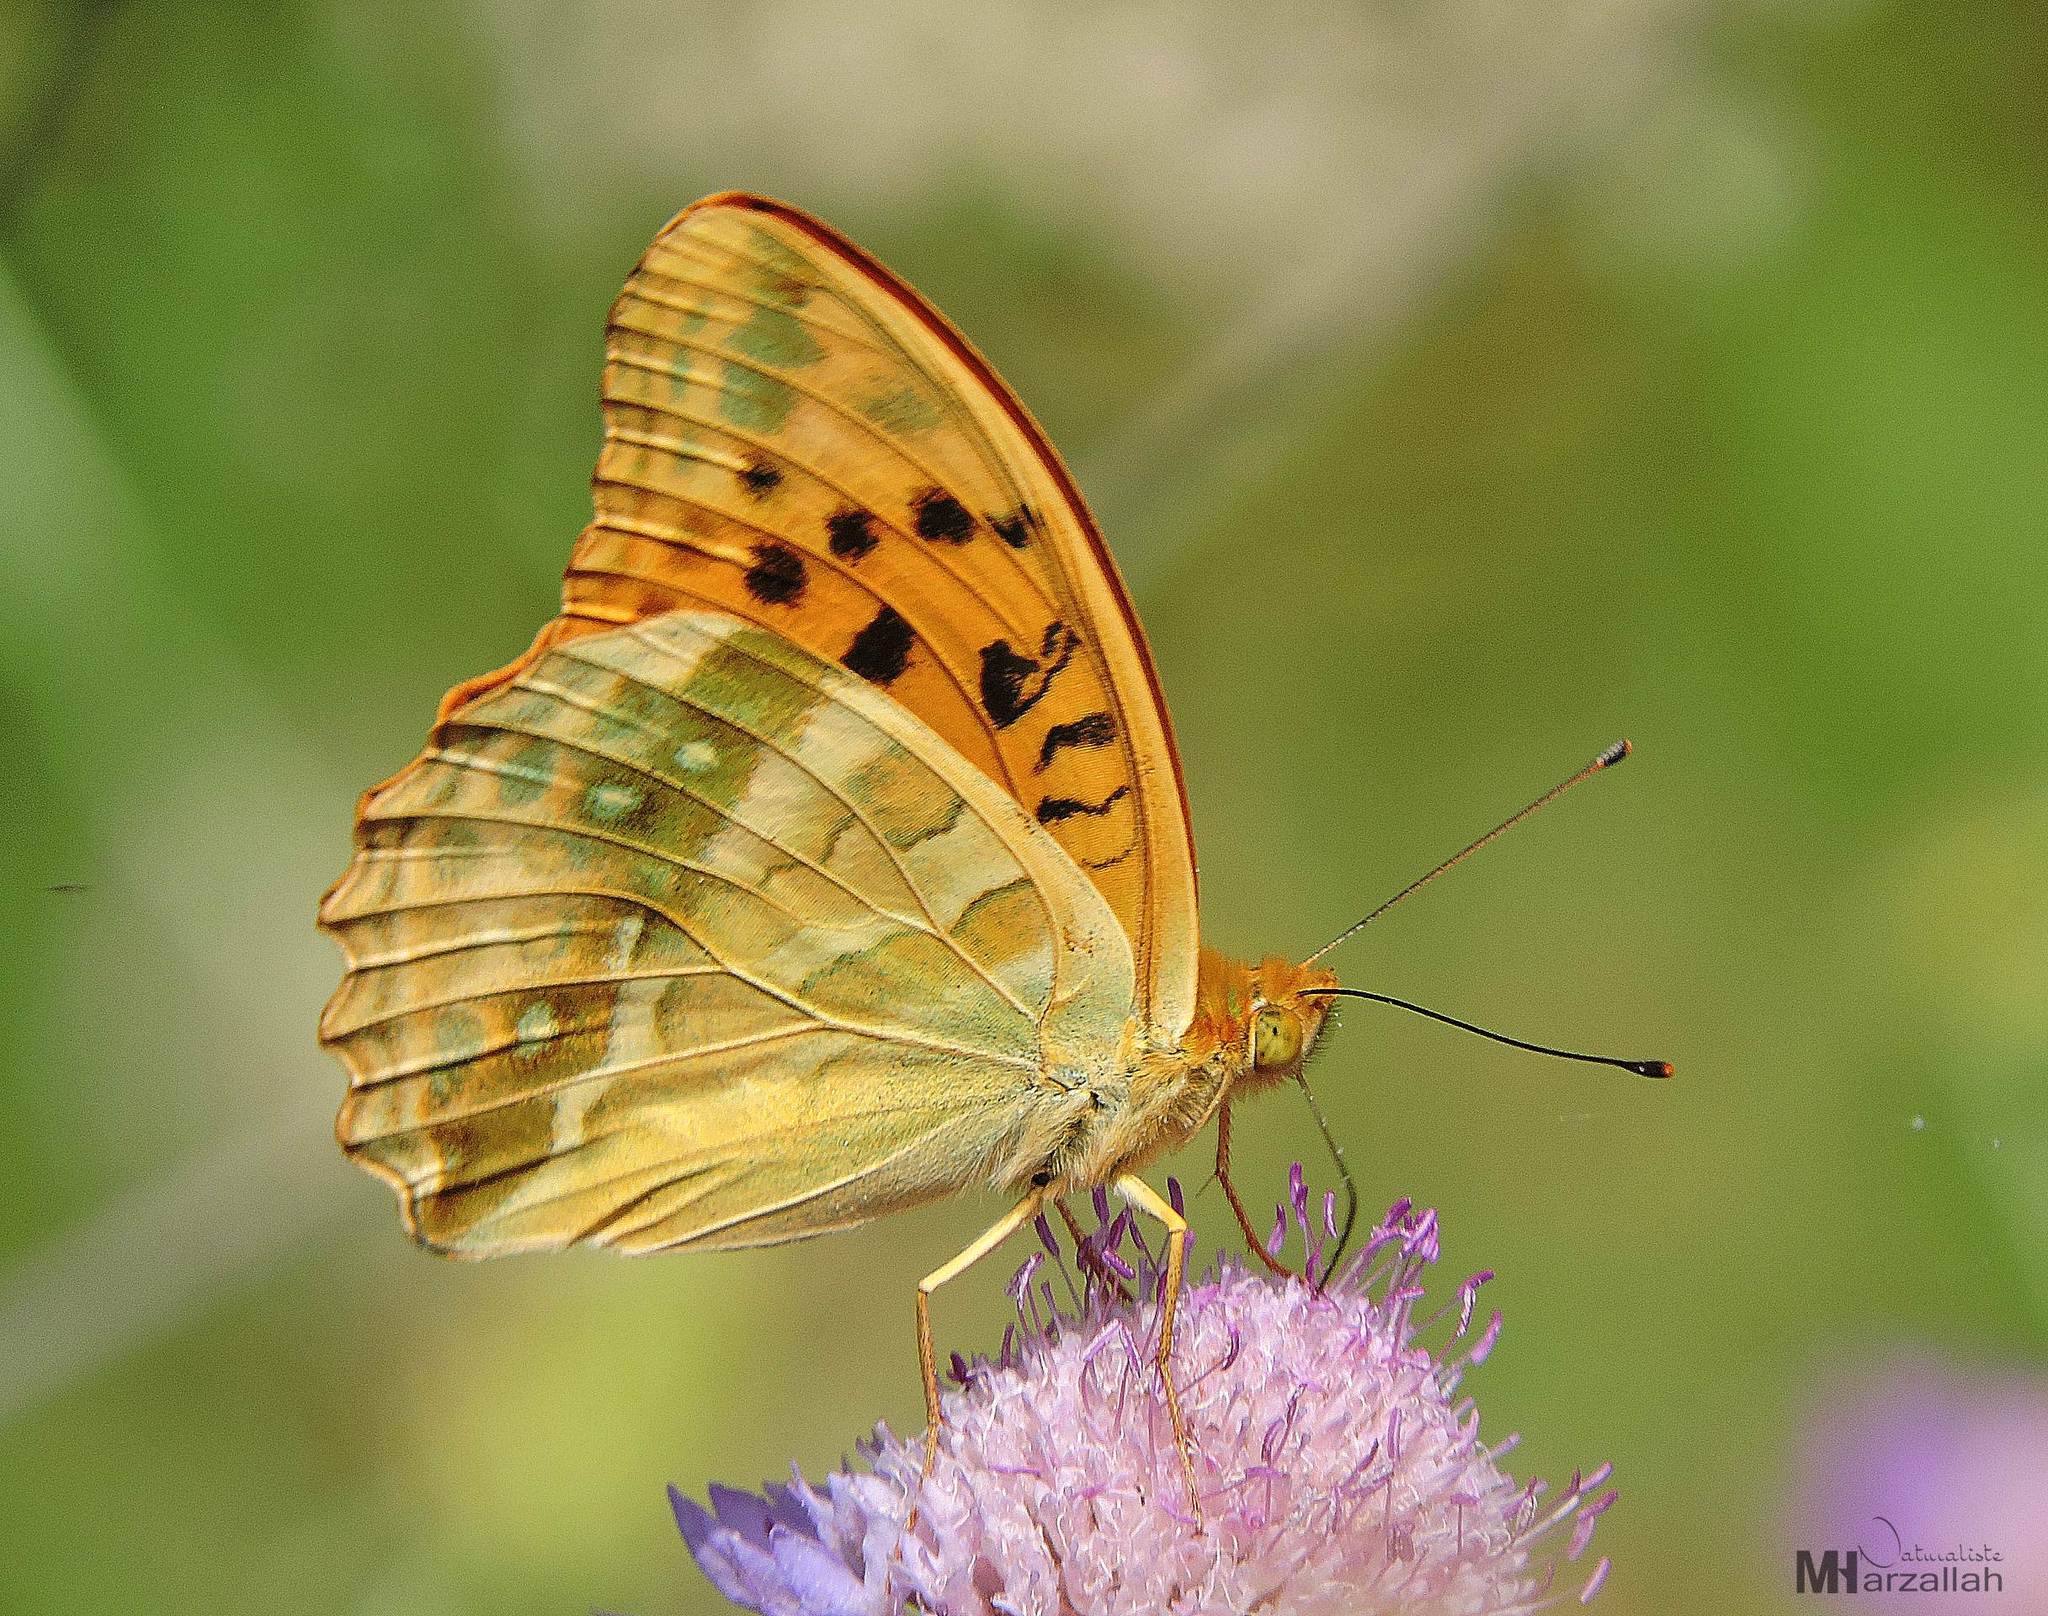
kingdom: Animalia
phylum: Arthropoda
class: Insecta
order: Lepidoptera
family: Nymphalidae
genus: Argynnis
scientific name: Argynnis paphia
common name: Silver-washed fritillary
